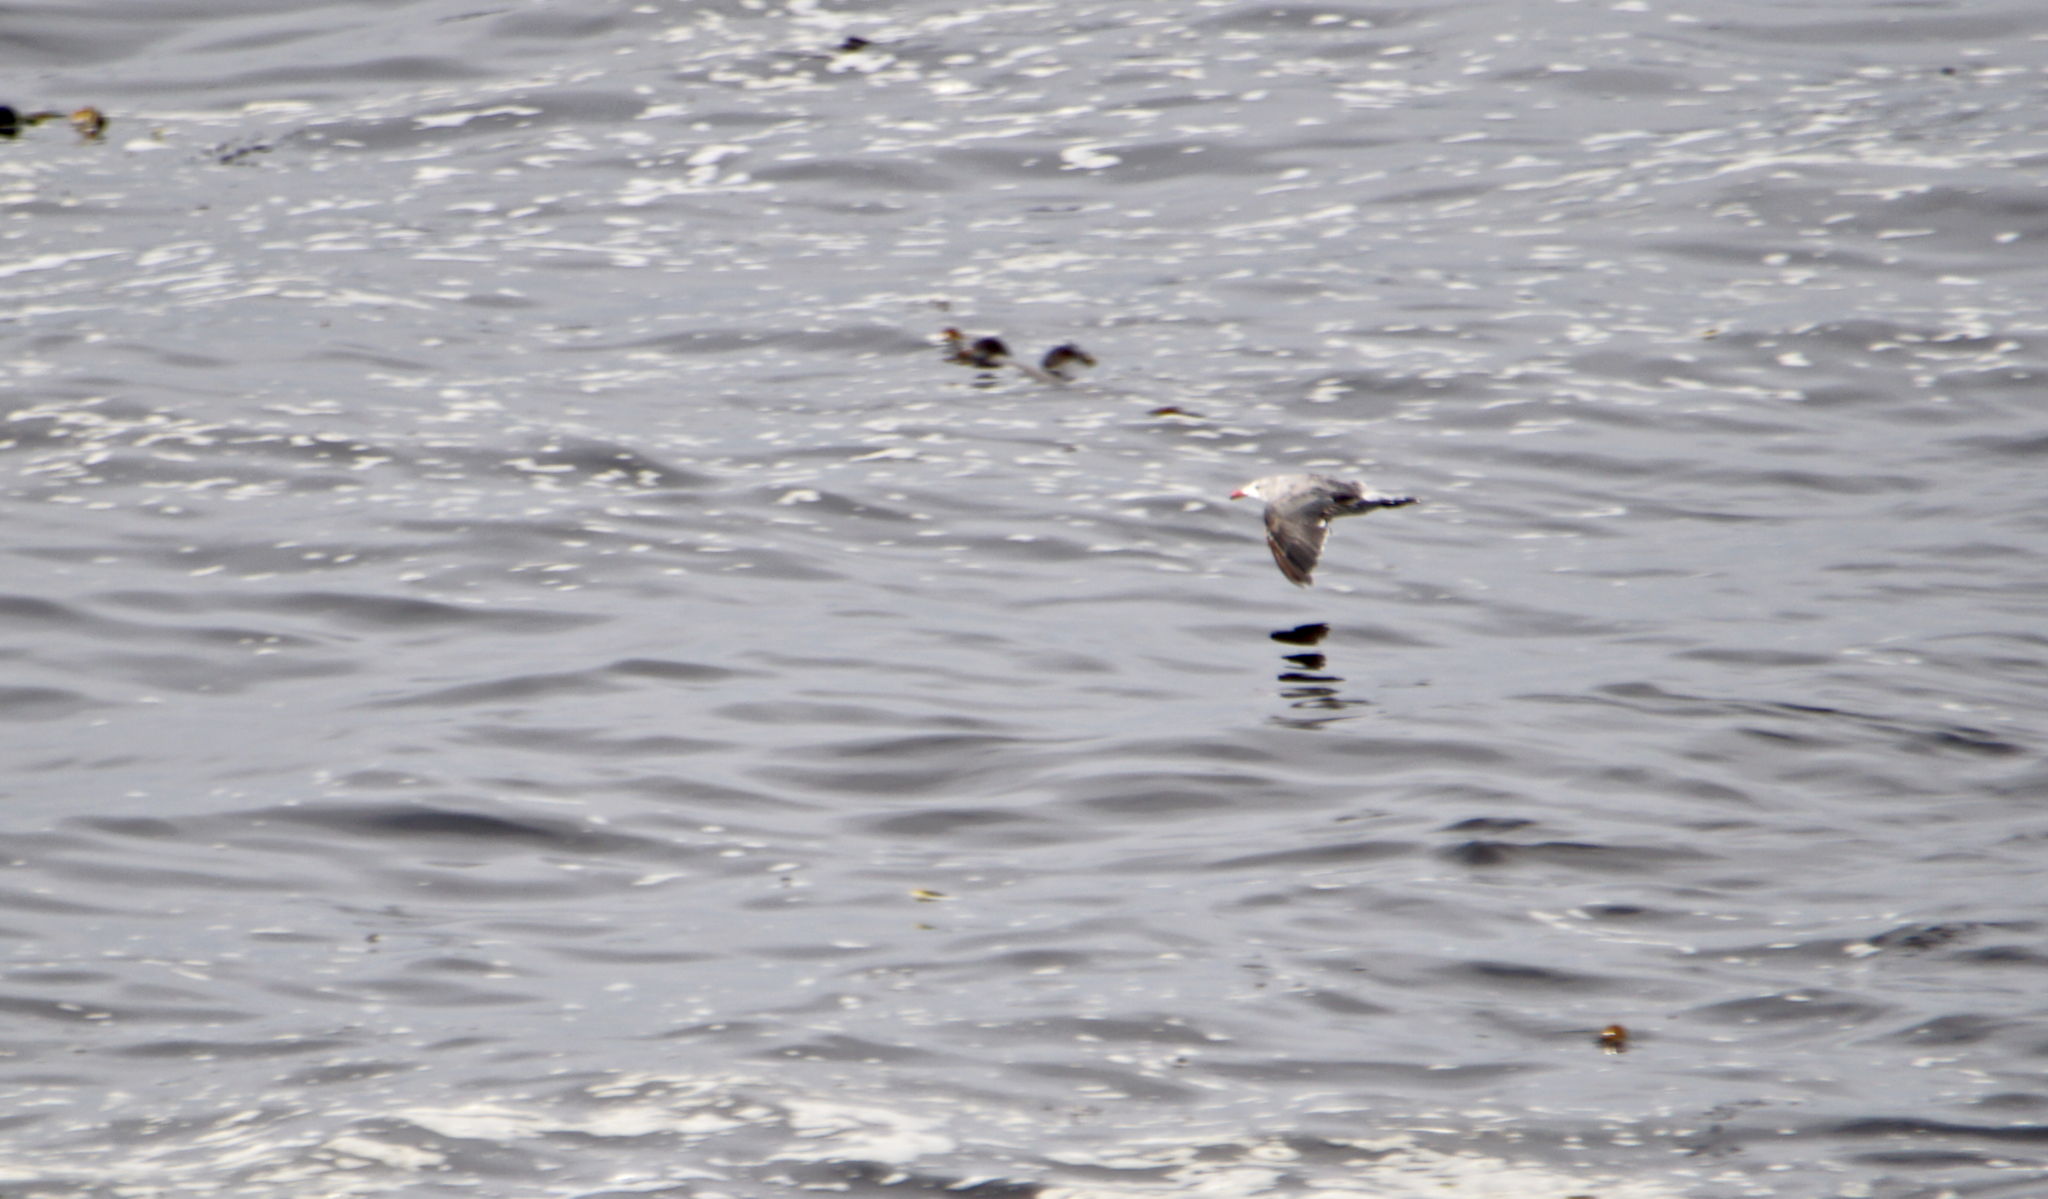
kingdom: Animalia
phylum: Chordata
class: Aves
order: Charadriiformes
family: Laridae
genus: Larus
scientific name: Larus heermanni
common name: Heermann's gull
